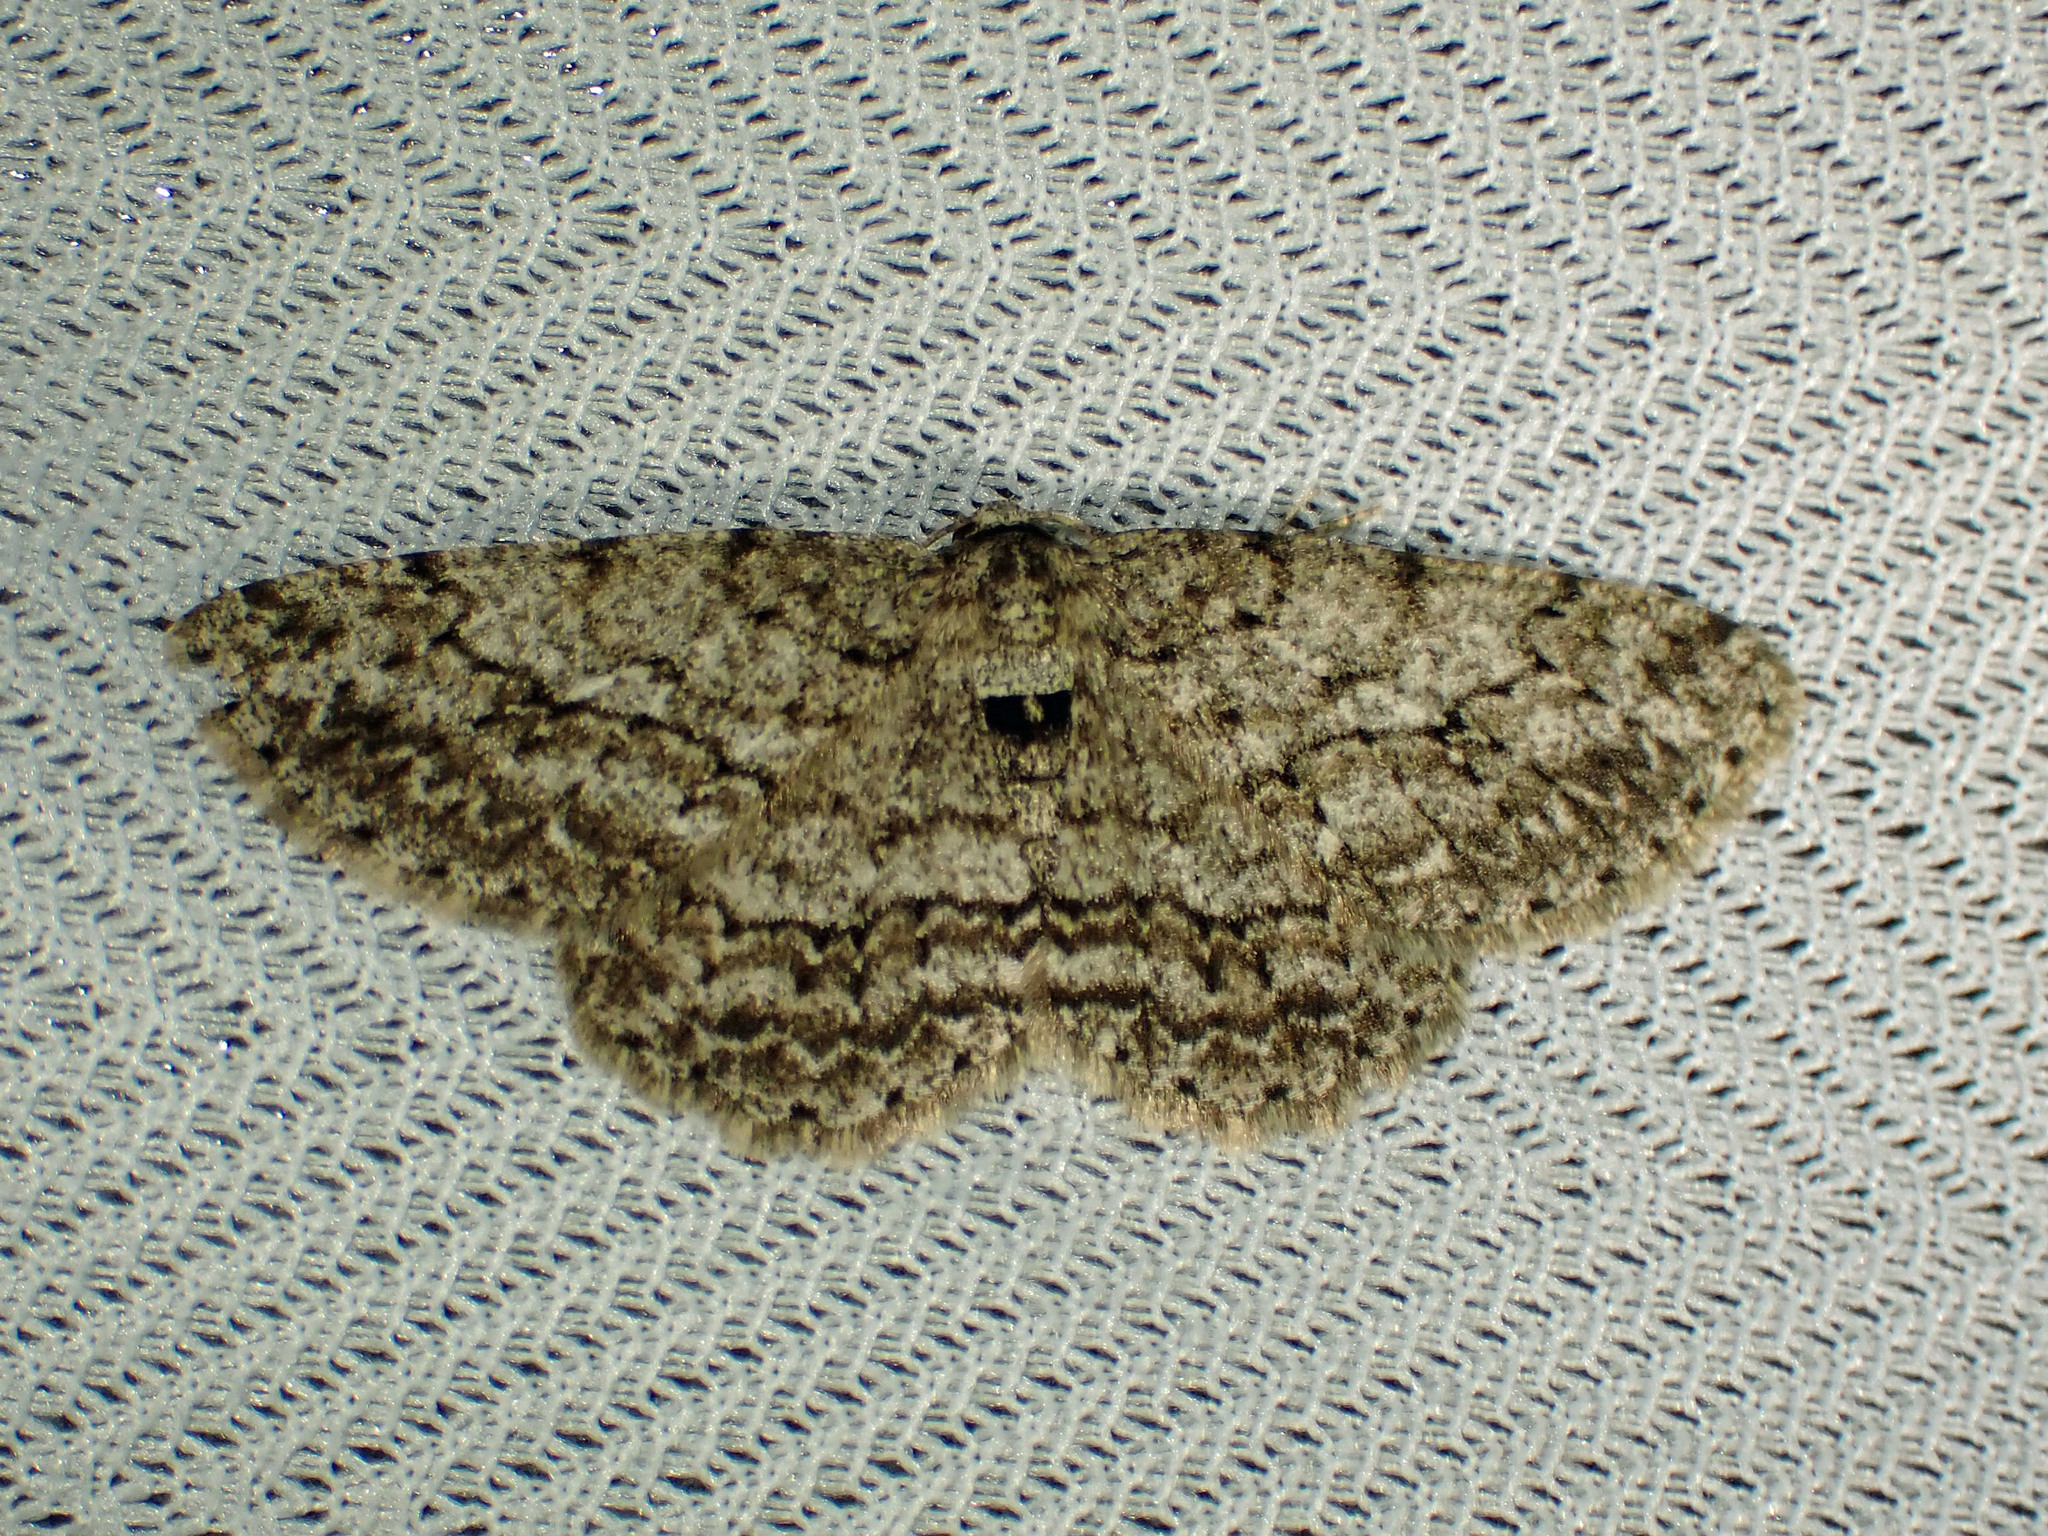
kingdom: Animalia
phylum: Arthropoda
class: Insecta
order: Lepidoptera
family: Geometridae
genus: Ectropis
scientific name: Ectropis crepuscularia
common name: Engrailed
